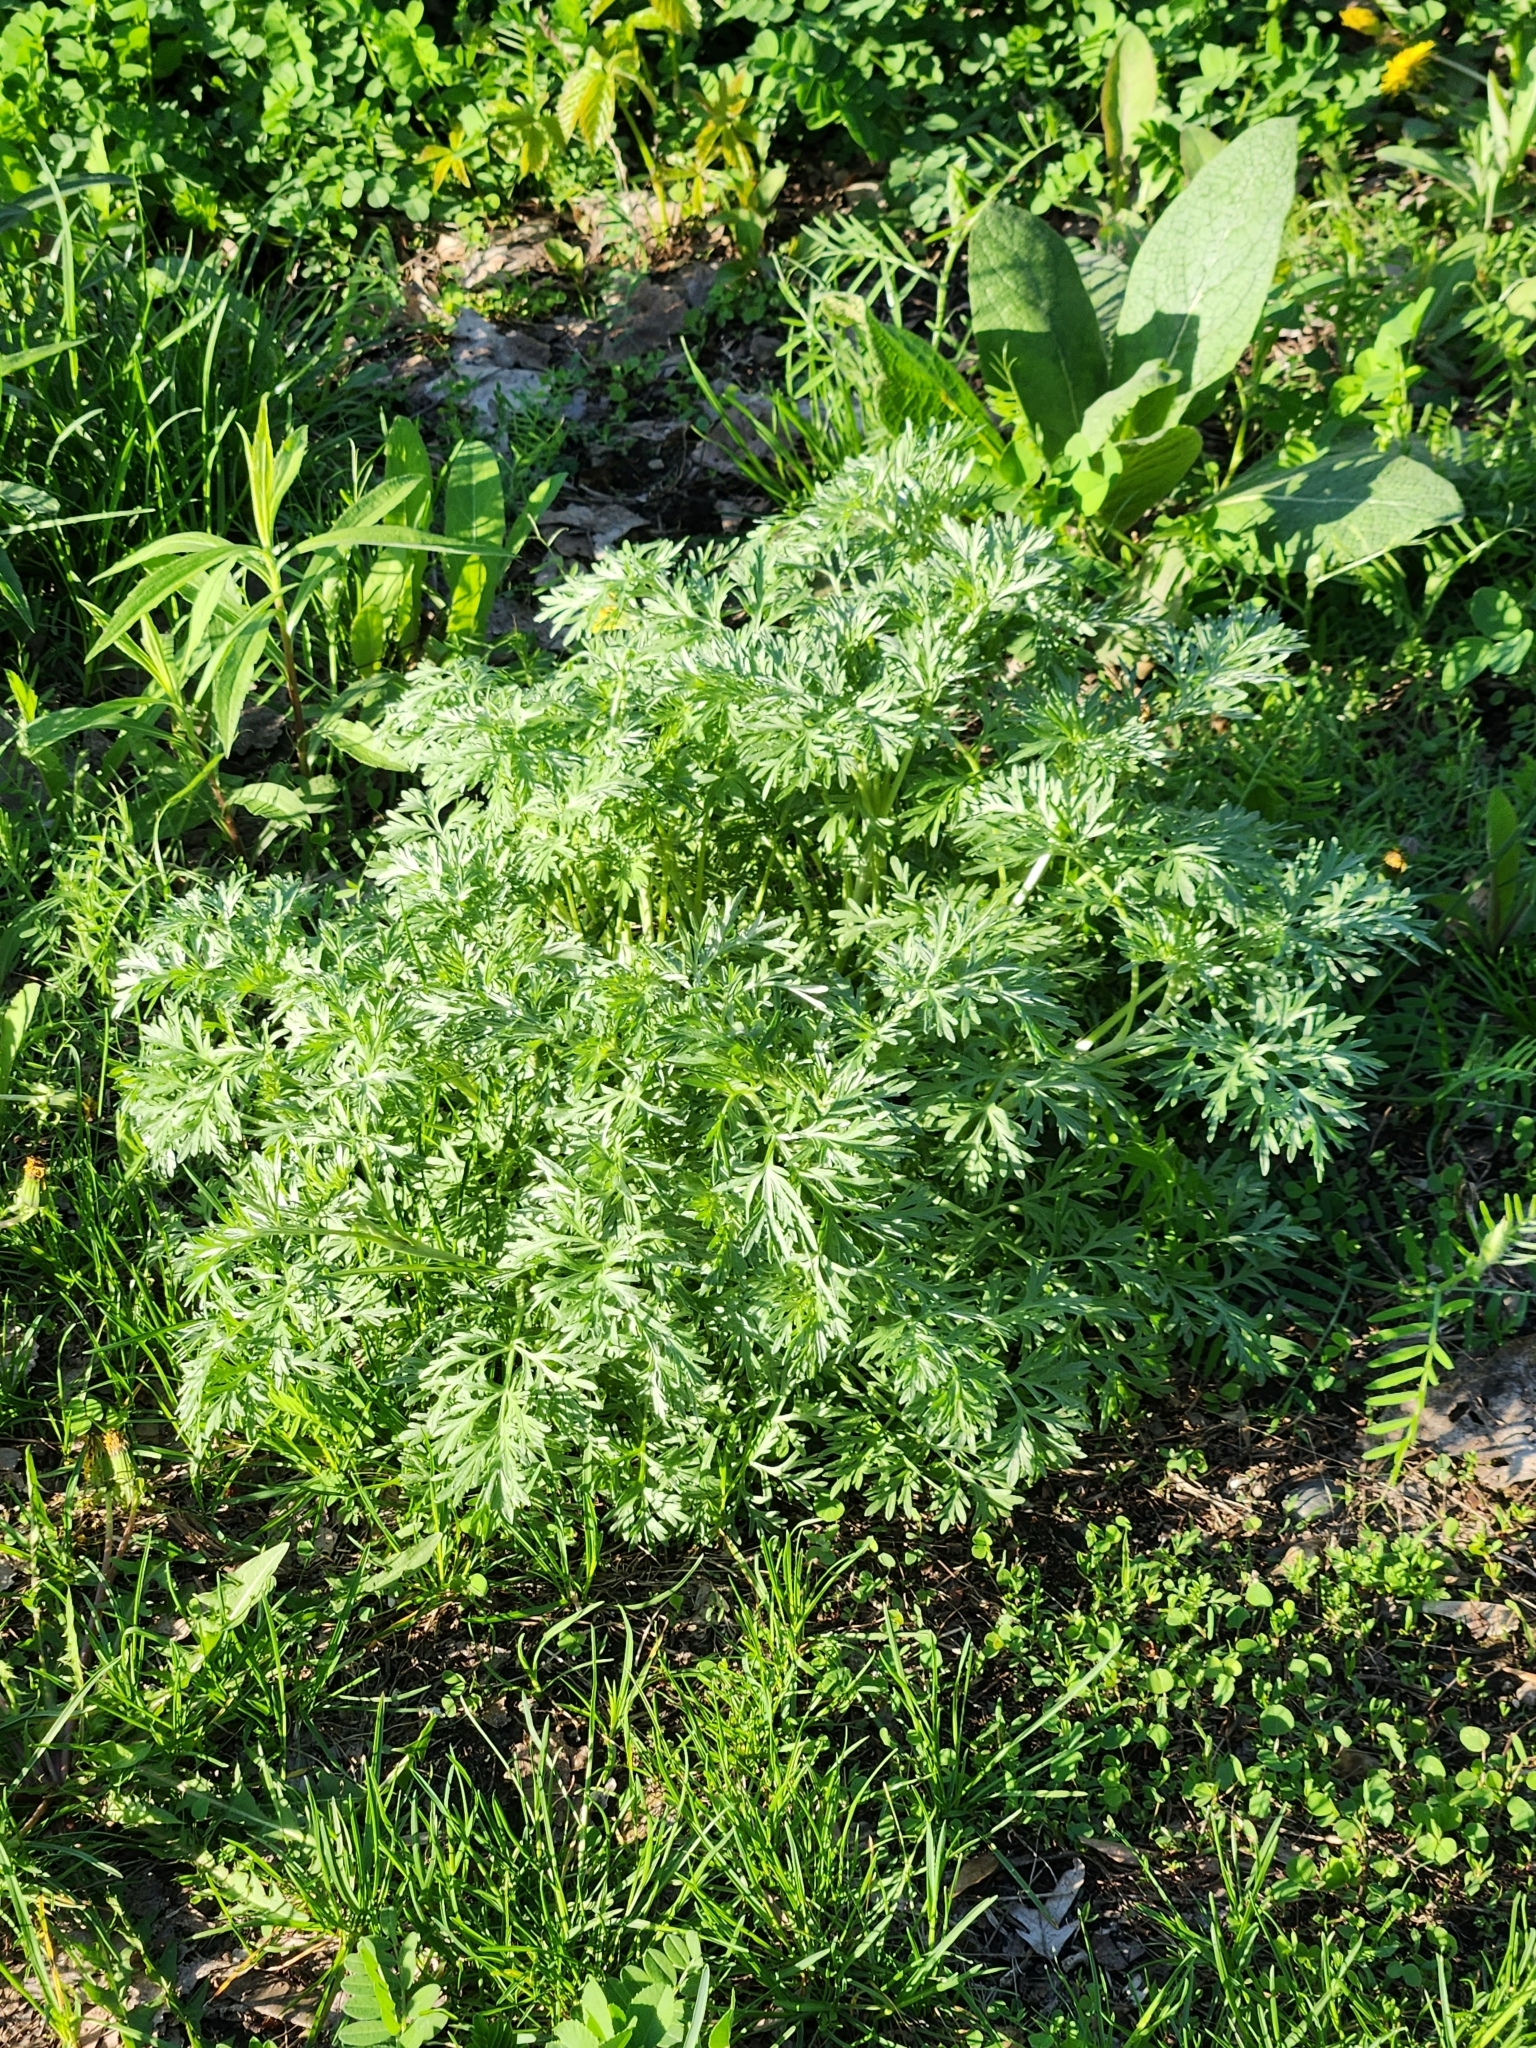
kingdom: Plantae
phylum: Tracheophyta
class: Magnoliopsida
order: Asterales
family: Asteraceae
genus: Artemisia
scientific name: Artemisia absinthium
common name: Wormwood
